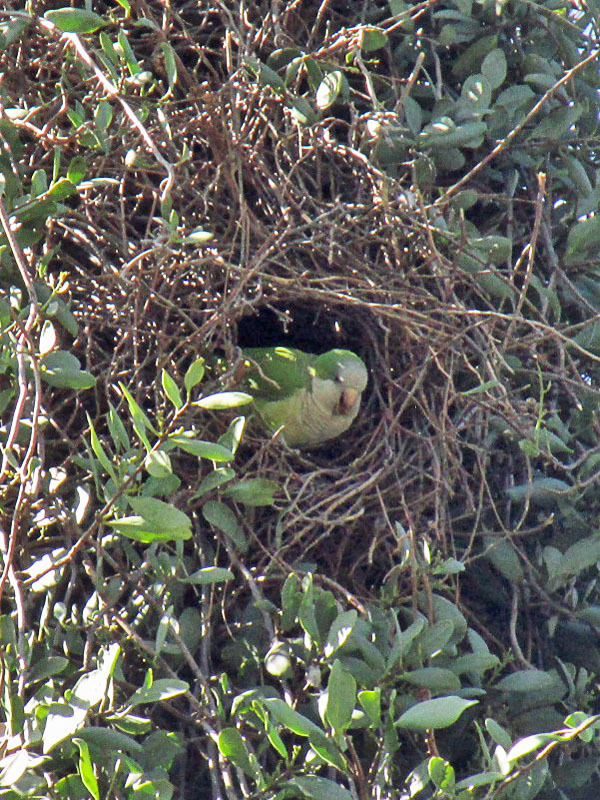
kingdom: Animalia
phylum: Chordata
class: Aves
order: Psittaciformes
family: Psittacidae
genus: Myiopsitta
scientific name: Myiopsitta monachus
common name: Monk parakeet
